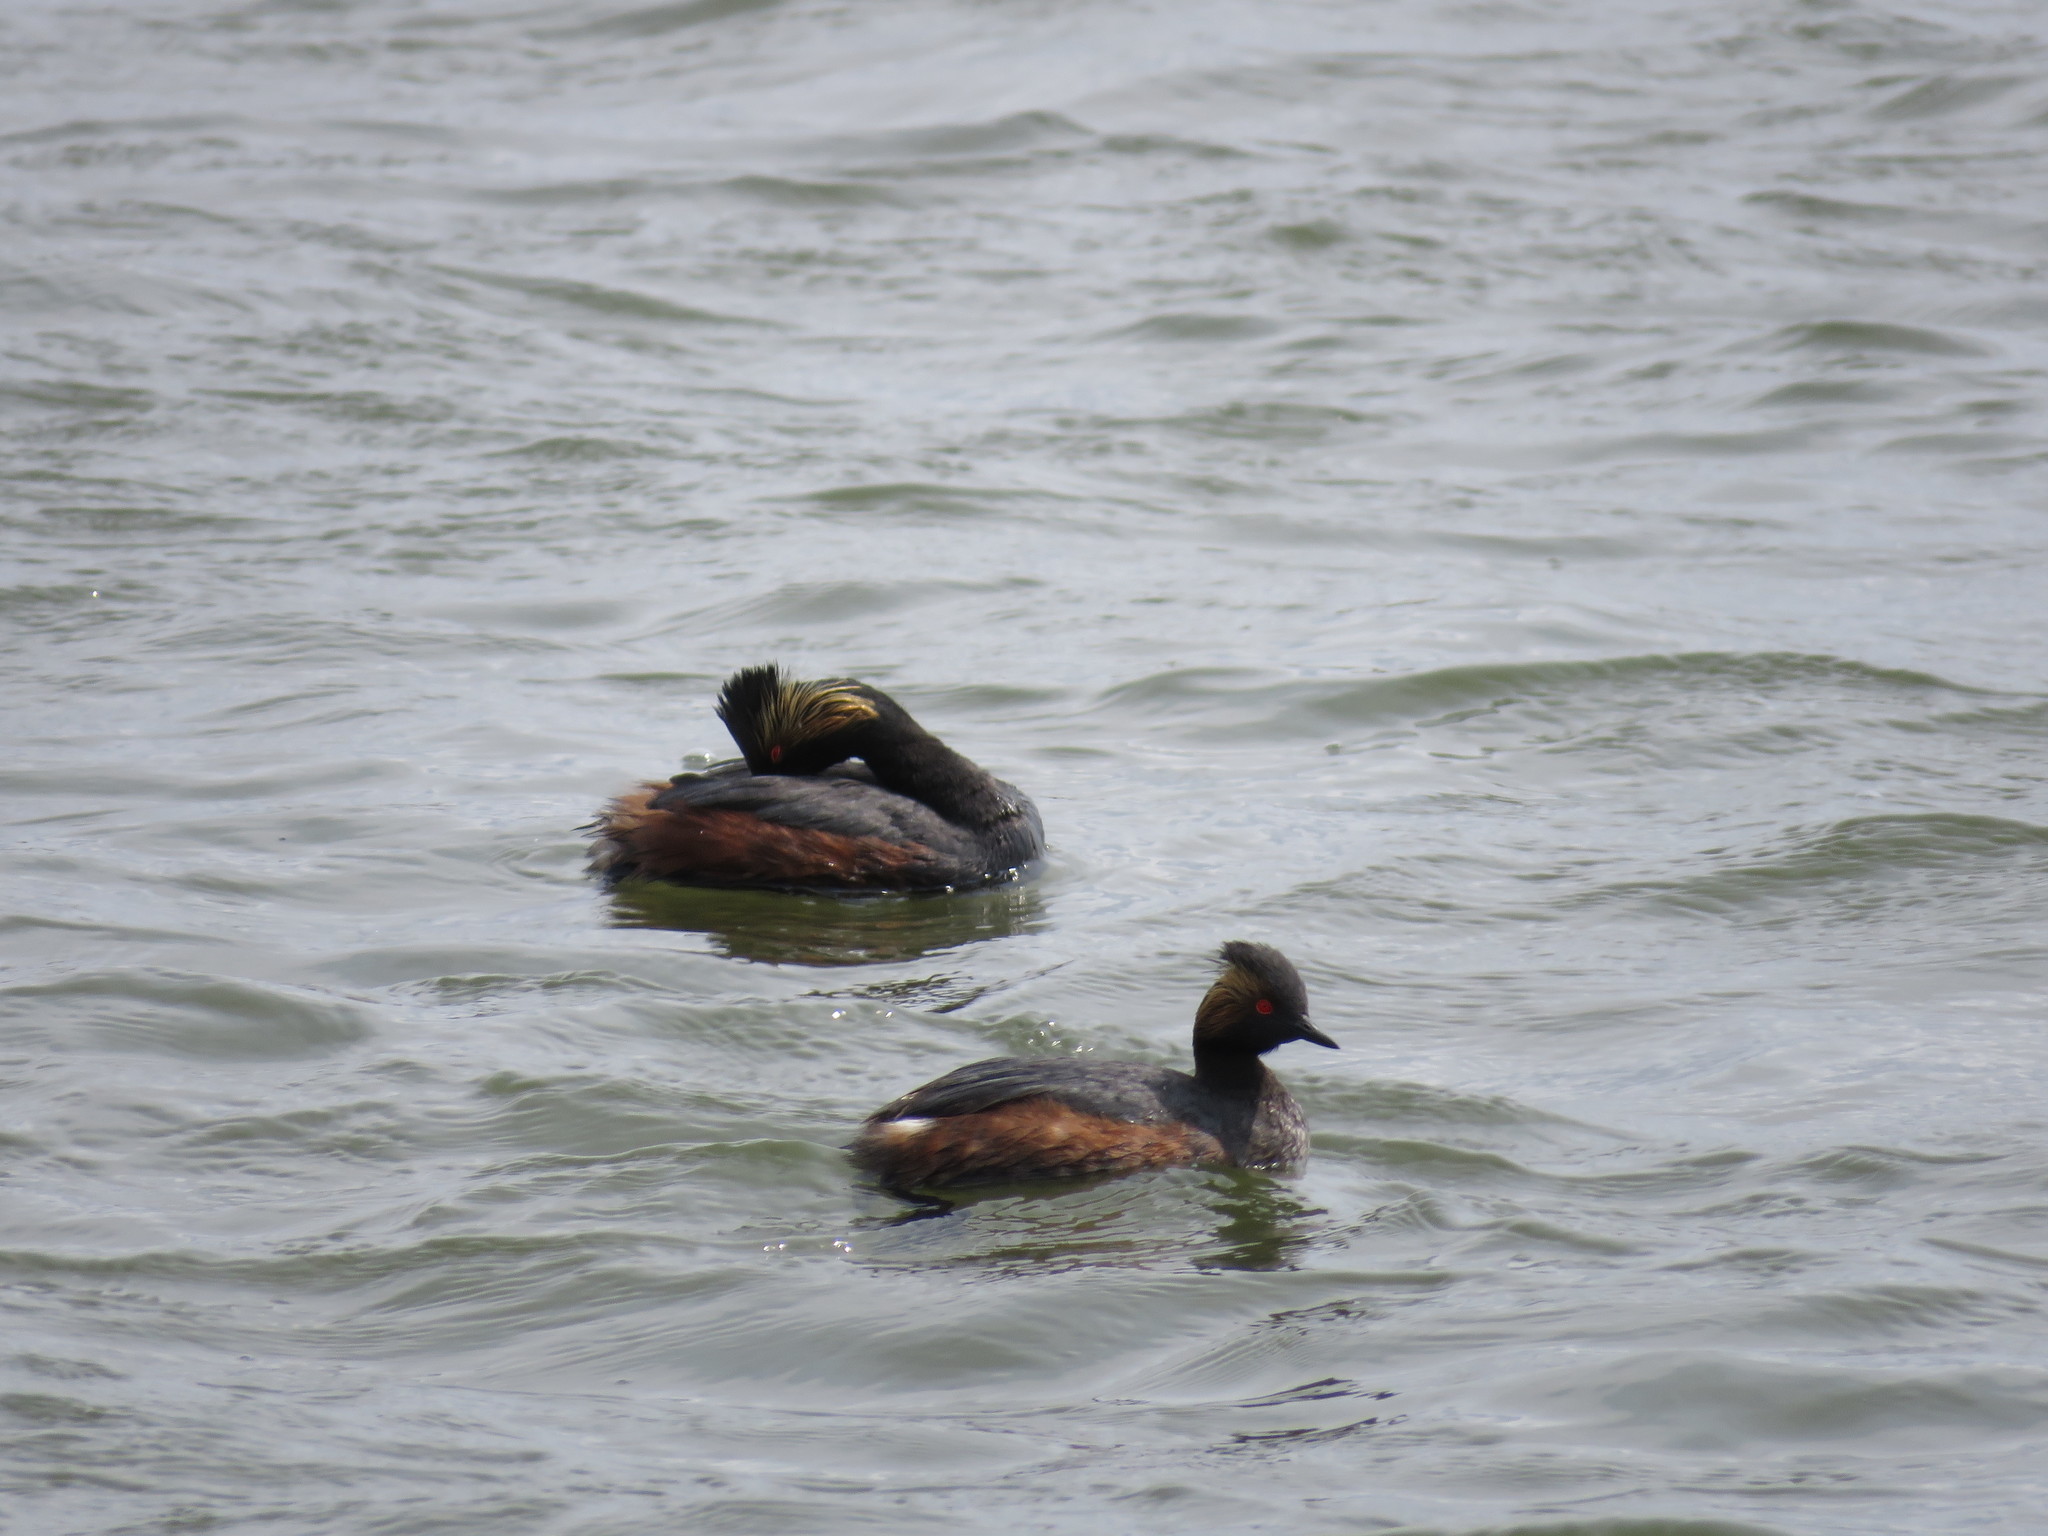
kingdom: Animalia
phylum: Chordata
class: Aves
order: Podicipediformes
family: Podicipedidae
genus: Podiceps
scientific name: Podiceps nigricollis
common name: Black-necked grebe
